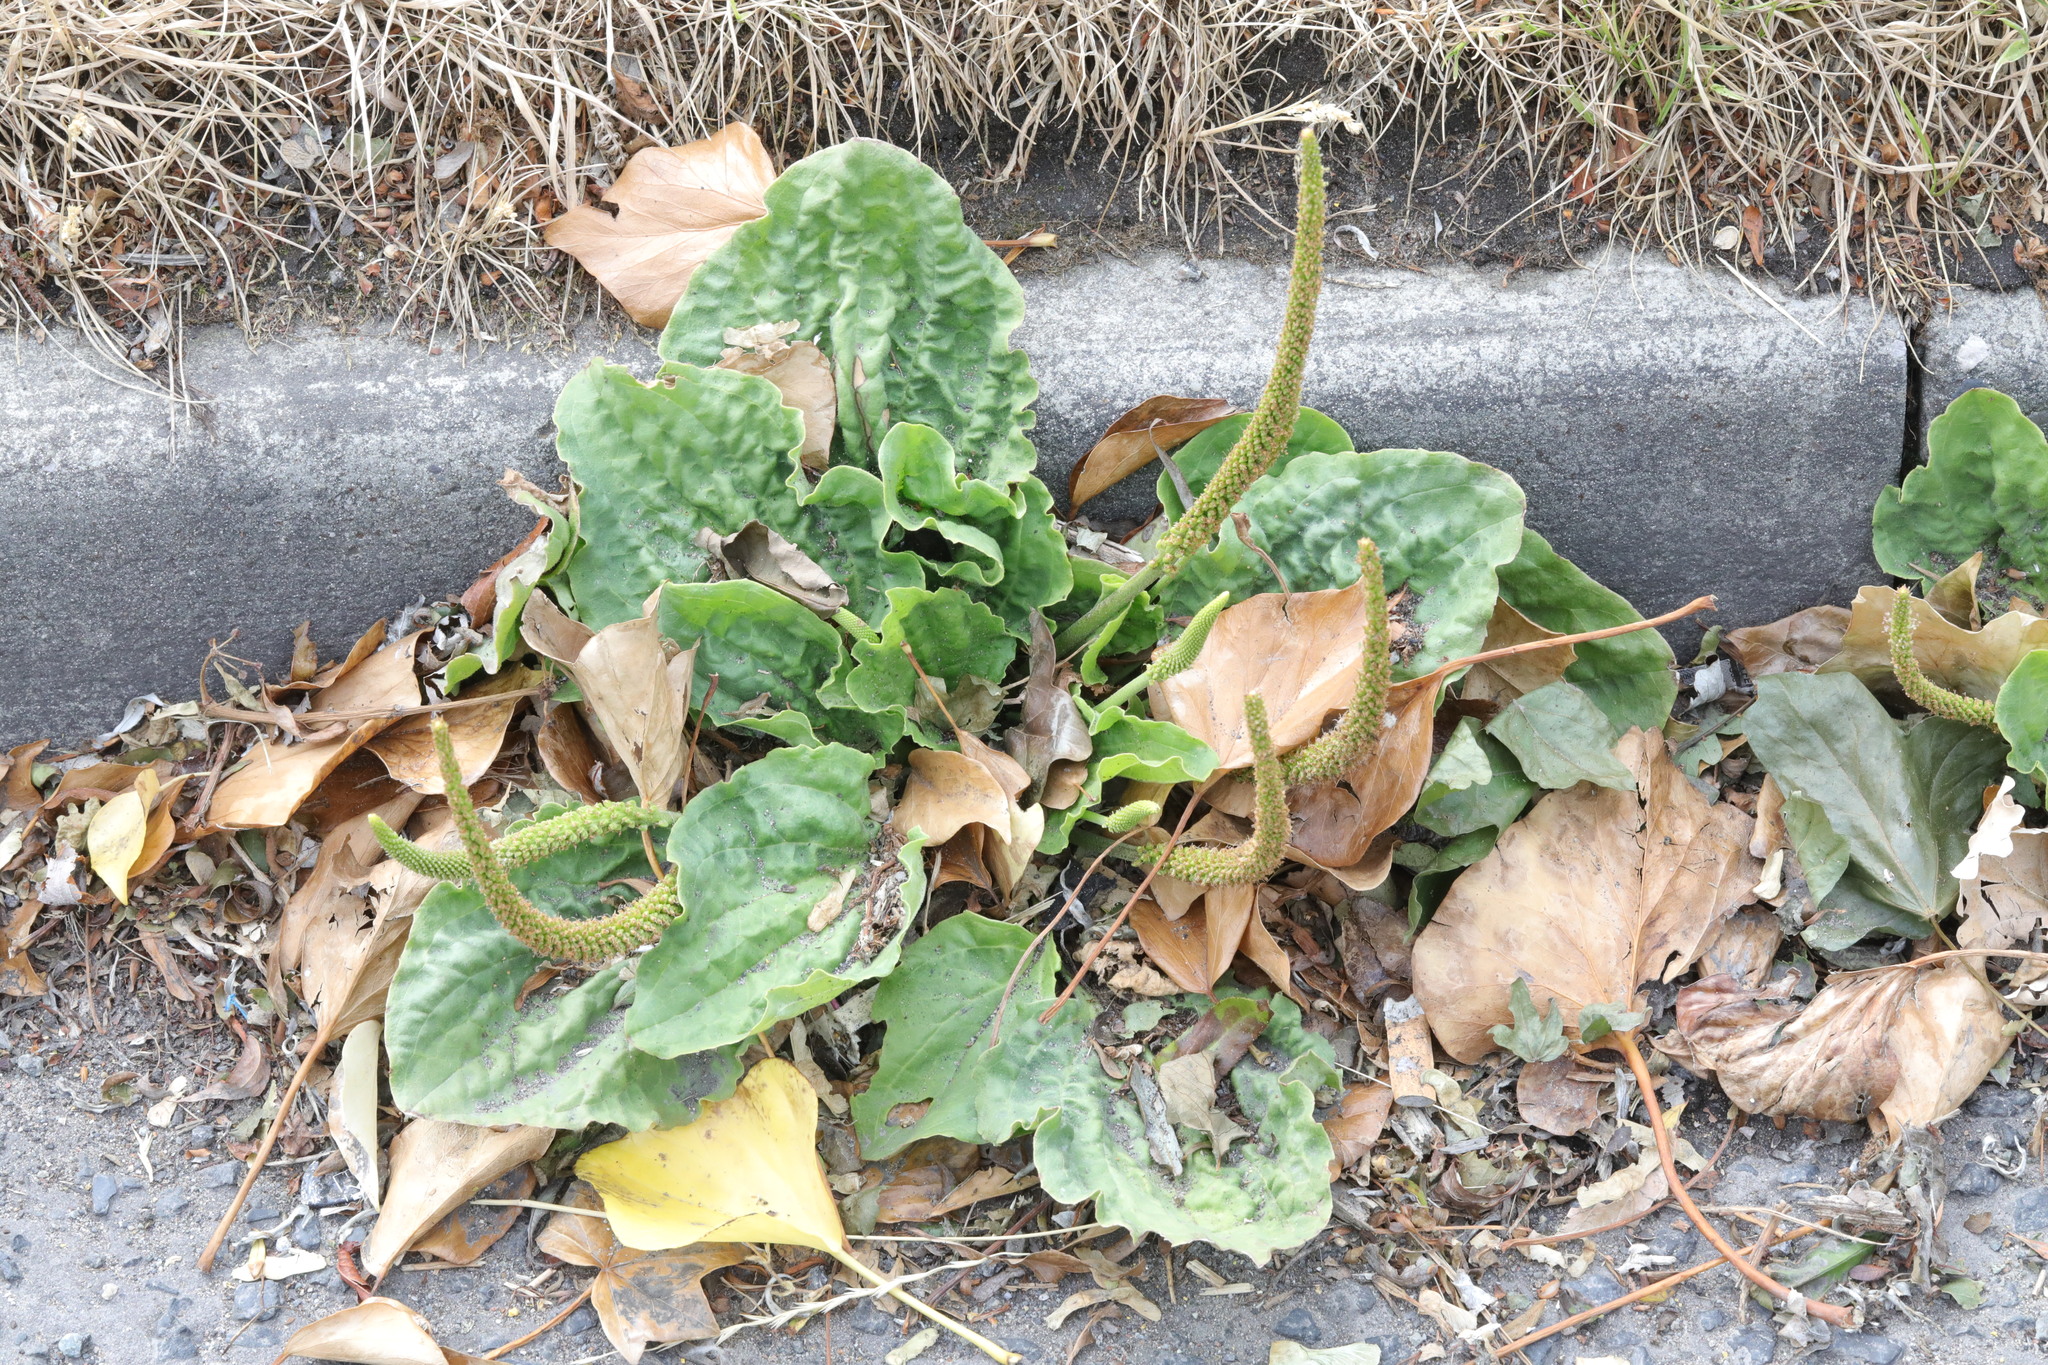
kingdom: Plantae
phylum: Tracheophyta
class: Magnoliopsida
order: Lamiales
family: Plantaginaceae
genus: Plantago
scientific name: Plantago major
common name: Common plantain
